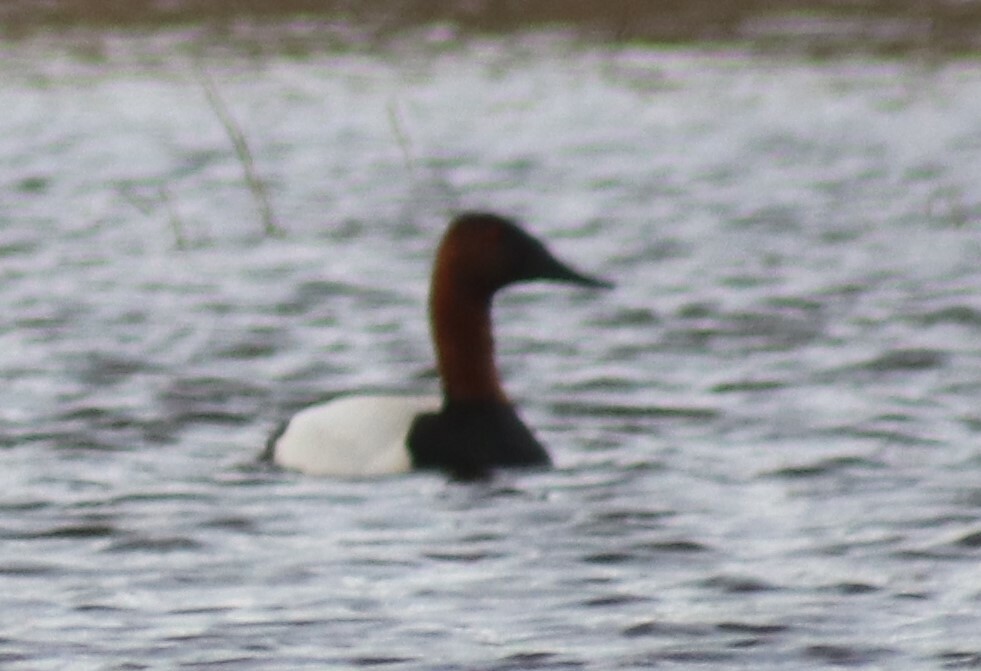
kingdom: Animalia
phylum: Chordata
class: Aves
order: Anseriformes
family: Anatidae
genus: Aythya
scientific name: Aythya valisineria
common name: Canvasback
